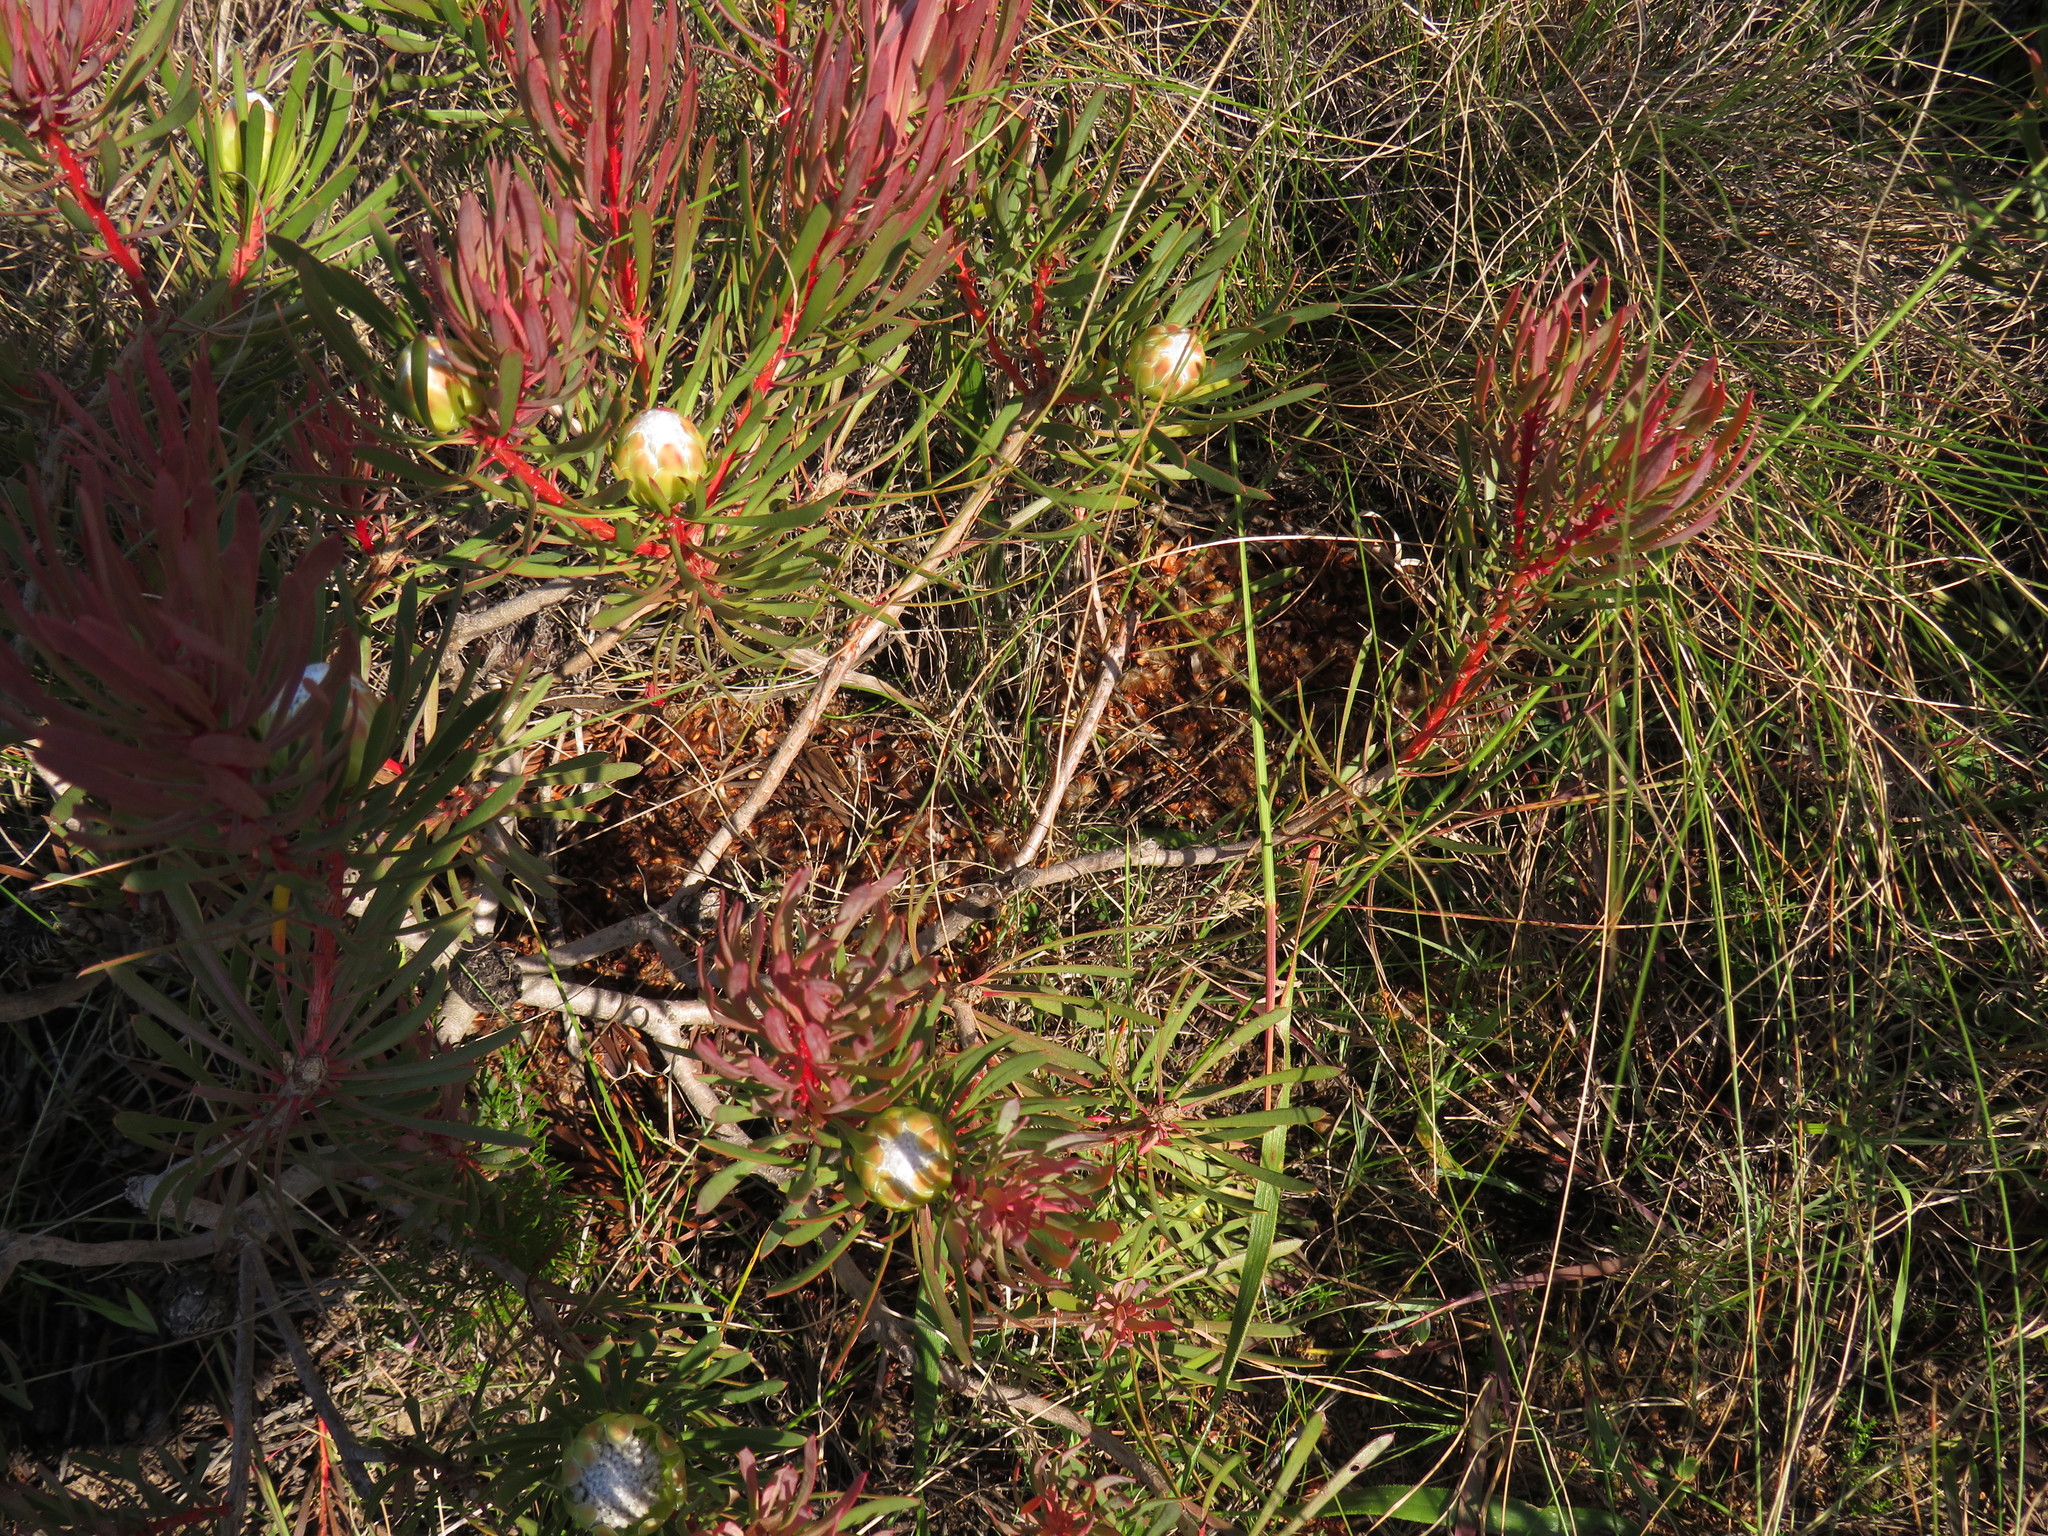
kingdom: Plantae
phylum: Tracheophyta
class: Magnoliopsida
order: Proteales
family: Proteaceae
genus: Protea
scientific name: Protea scolymocephala
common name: Thistle sugarbush
